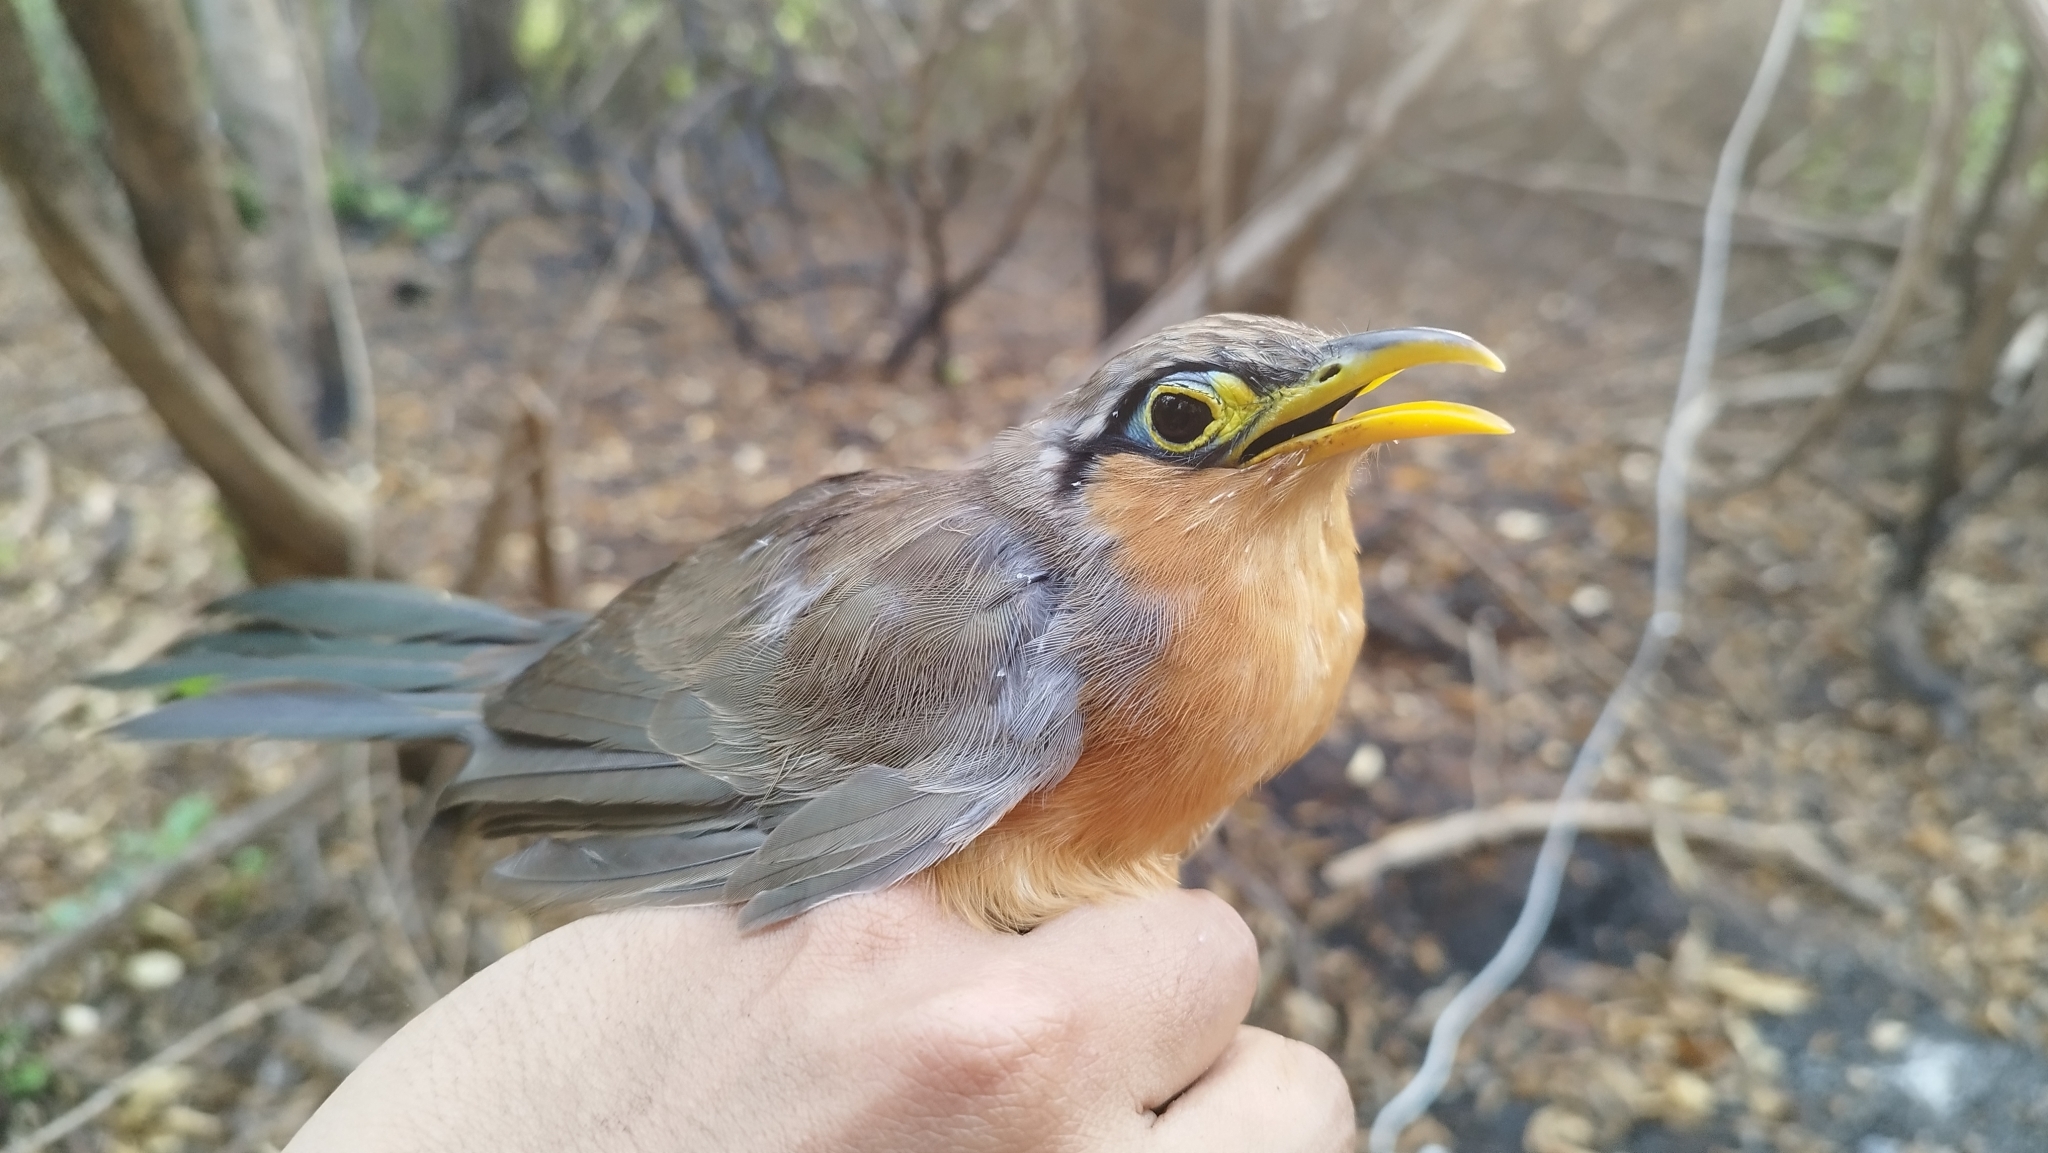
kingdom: Animalia
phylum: Chordata
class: Aves
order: Cuculiformes
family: Cuculidae
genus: Morococcyx
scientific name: Morococcyx erythropygus
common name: Lesser ground-cuckoo
